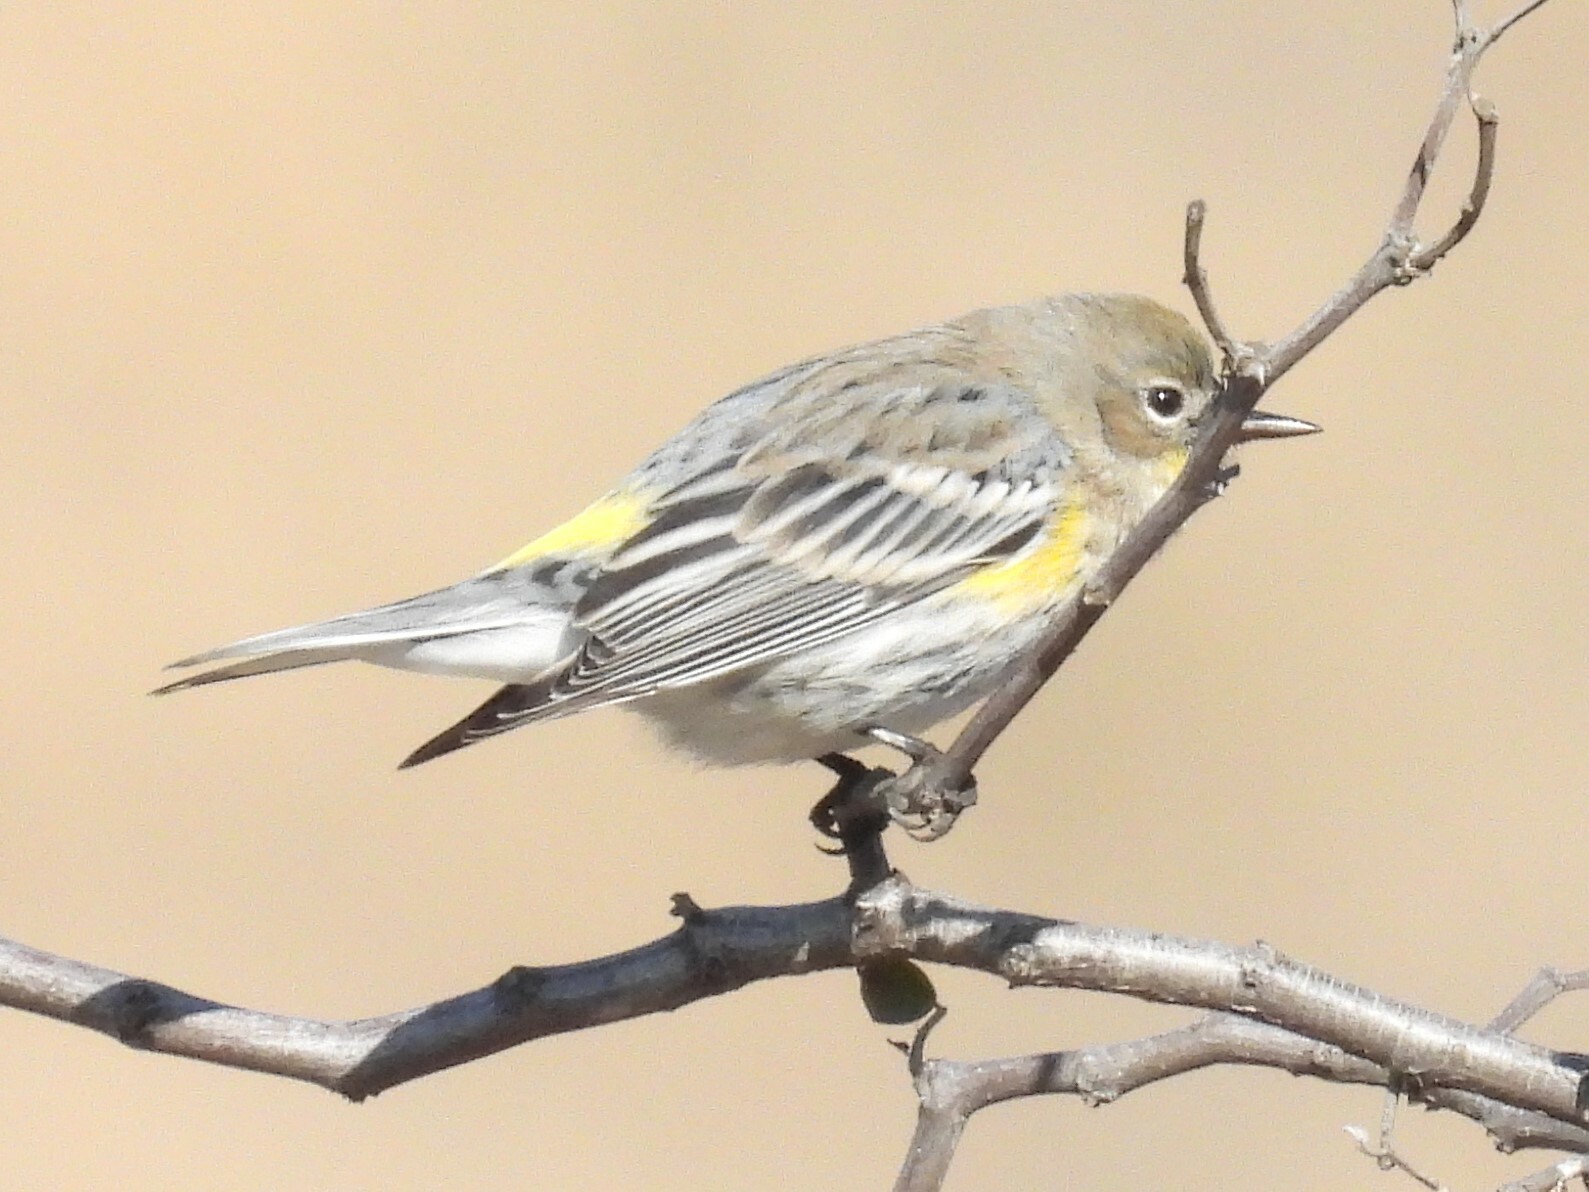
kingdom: Animalia
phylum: Chordata
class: Aves
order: Passeriformes
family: Parulidae
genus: Setophaga
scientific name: Setophaga coronata
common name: Myrtle warbler
